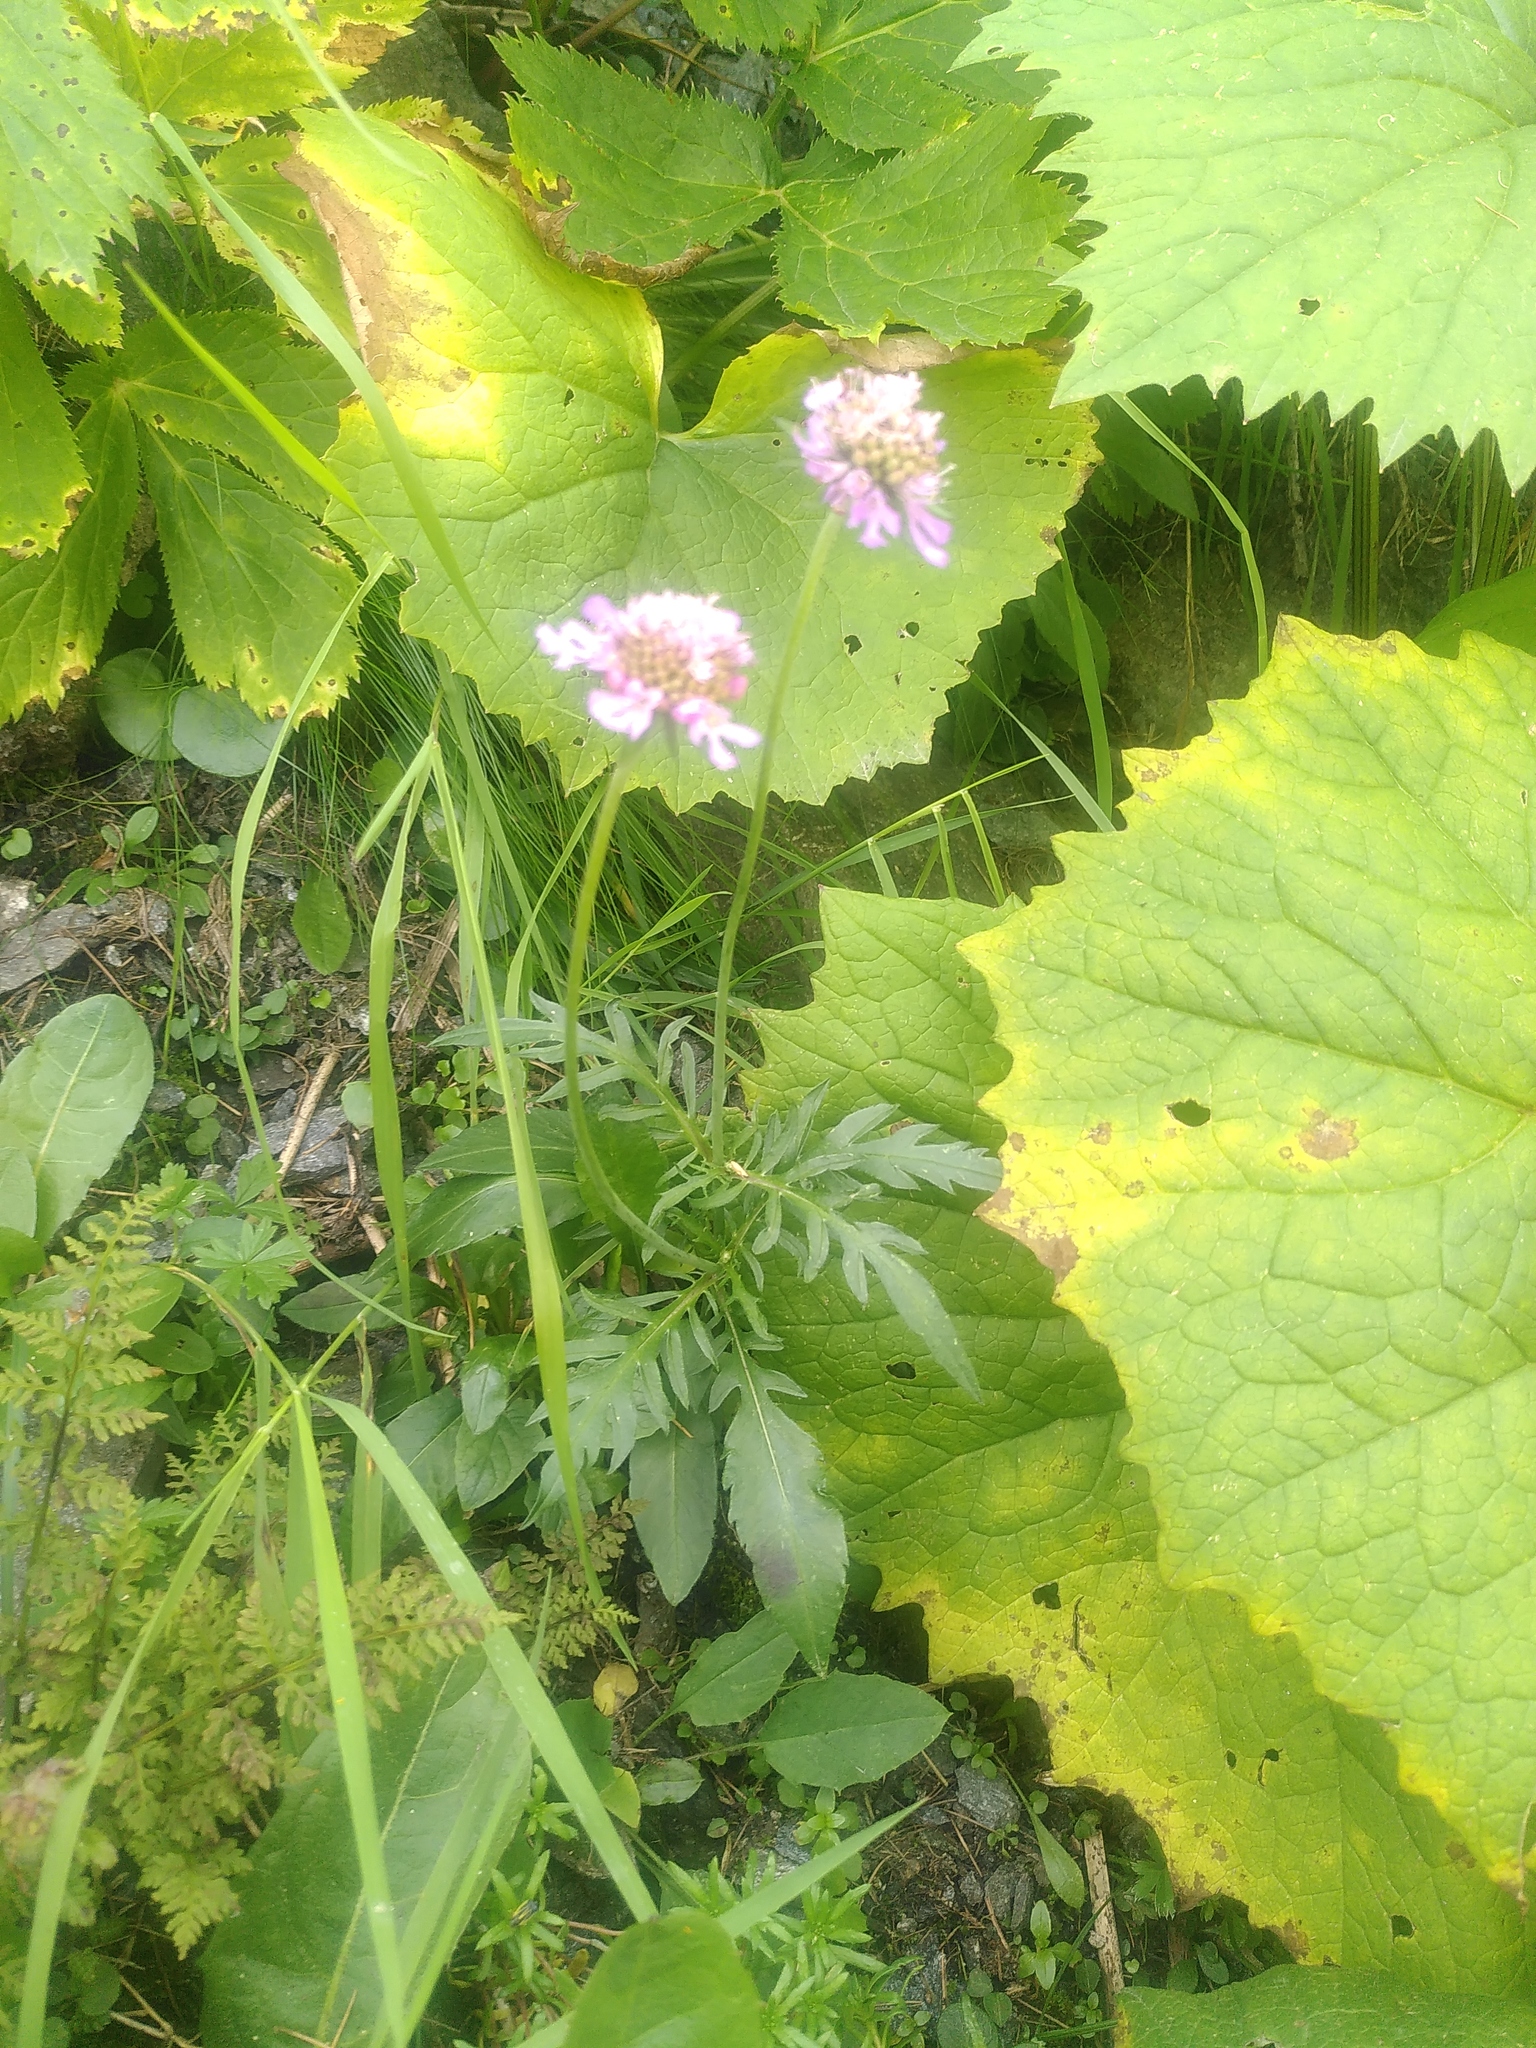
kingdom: Plantae
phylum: Tracheophyta
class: Magnoliopsida
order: Dipsacales
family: Caprifoliaceae
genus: Scabiosa
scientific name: Scabiosa lucida
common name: Shining scabious
